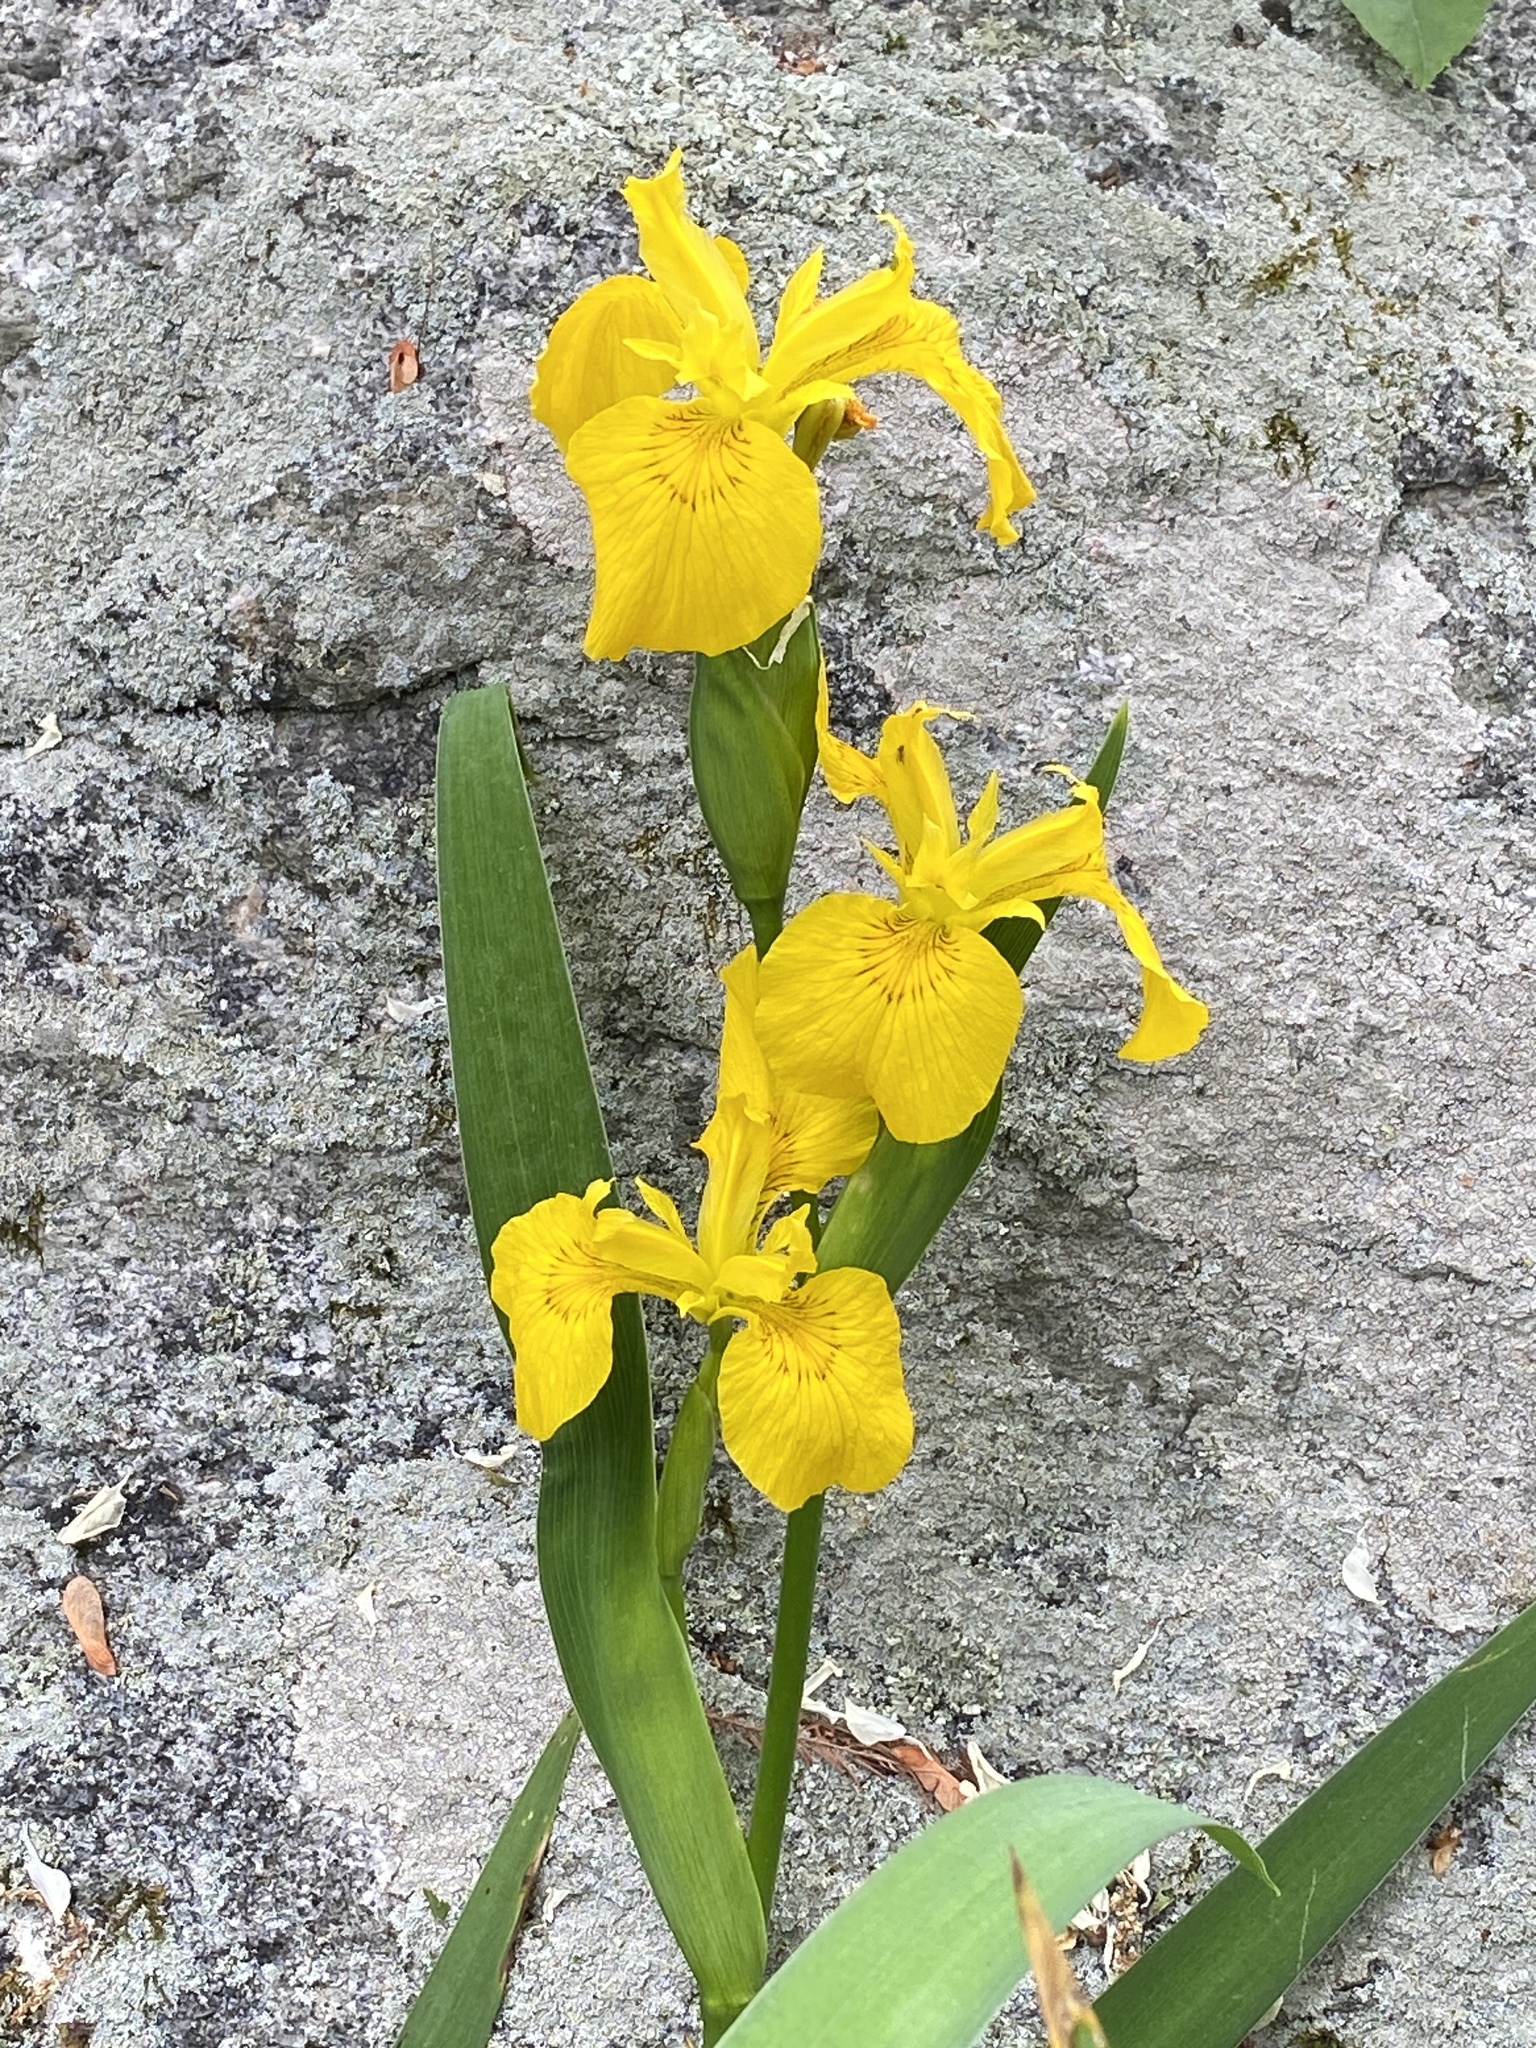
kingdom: Plantae
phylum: Tracheophyta
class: Liliopsida
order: Asparagales
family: Iridaceae
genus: Iris
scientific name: Iris pseudacorus
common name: Yellow flag
